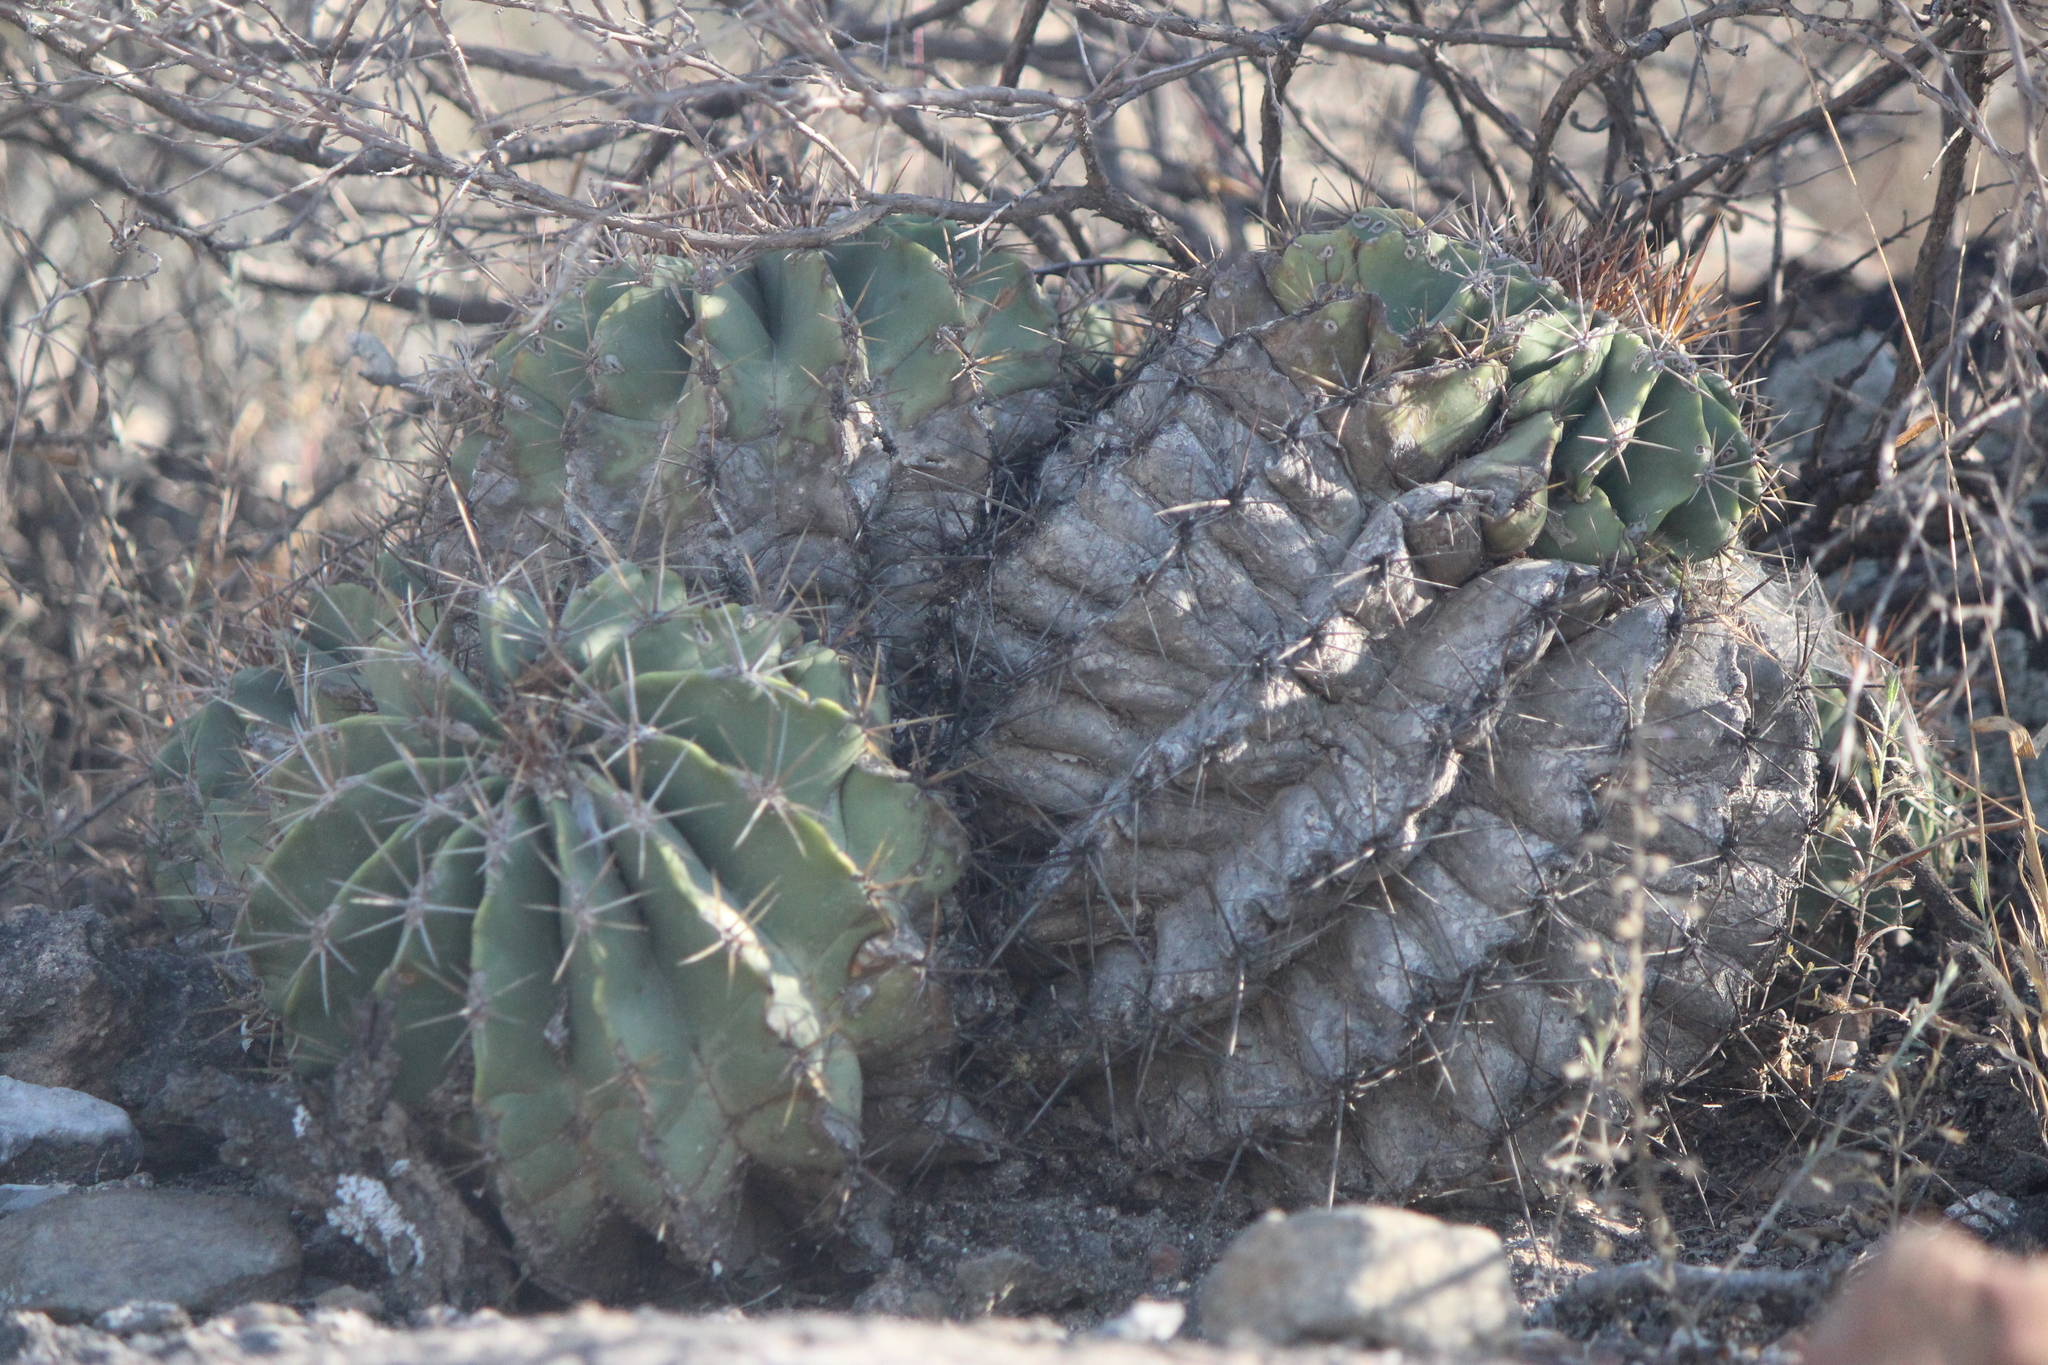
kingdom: Plantae
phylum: Tracheophyta
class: Magnoliopsida
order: Caryophyllales
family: Cactaceae
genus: Parrycactus
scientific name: Parrycactus echidne
